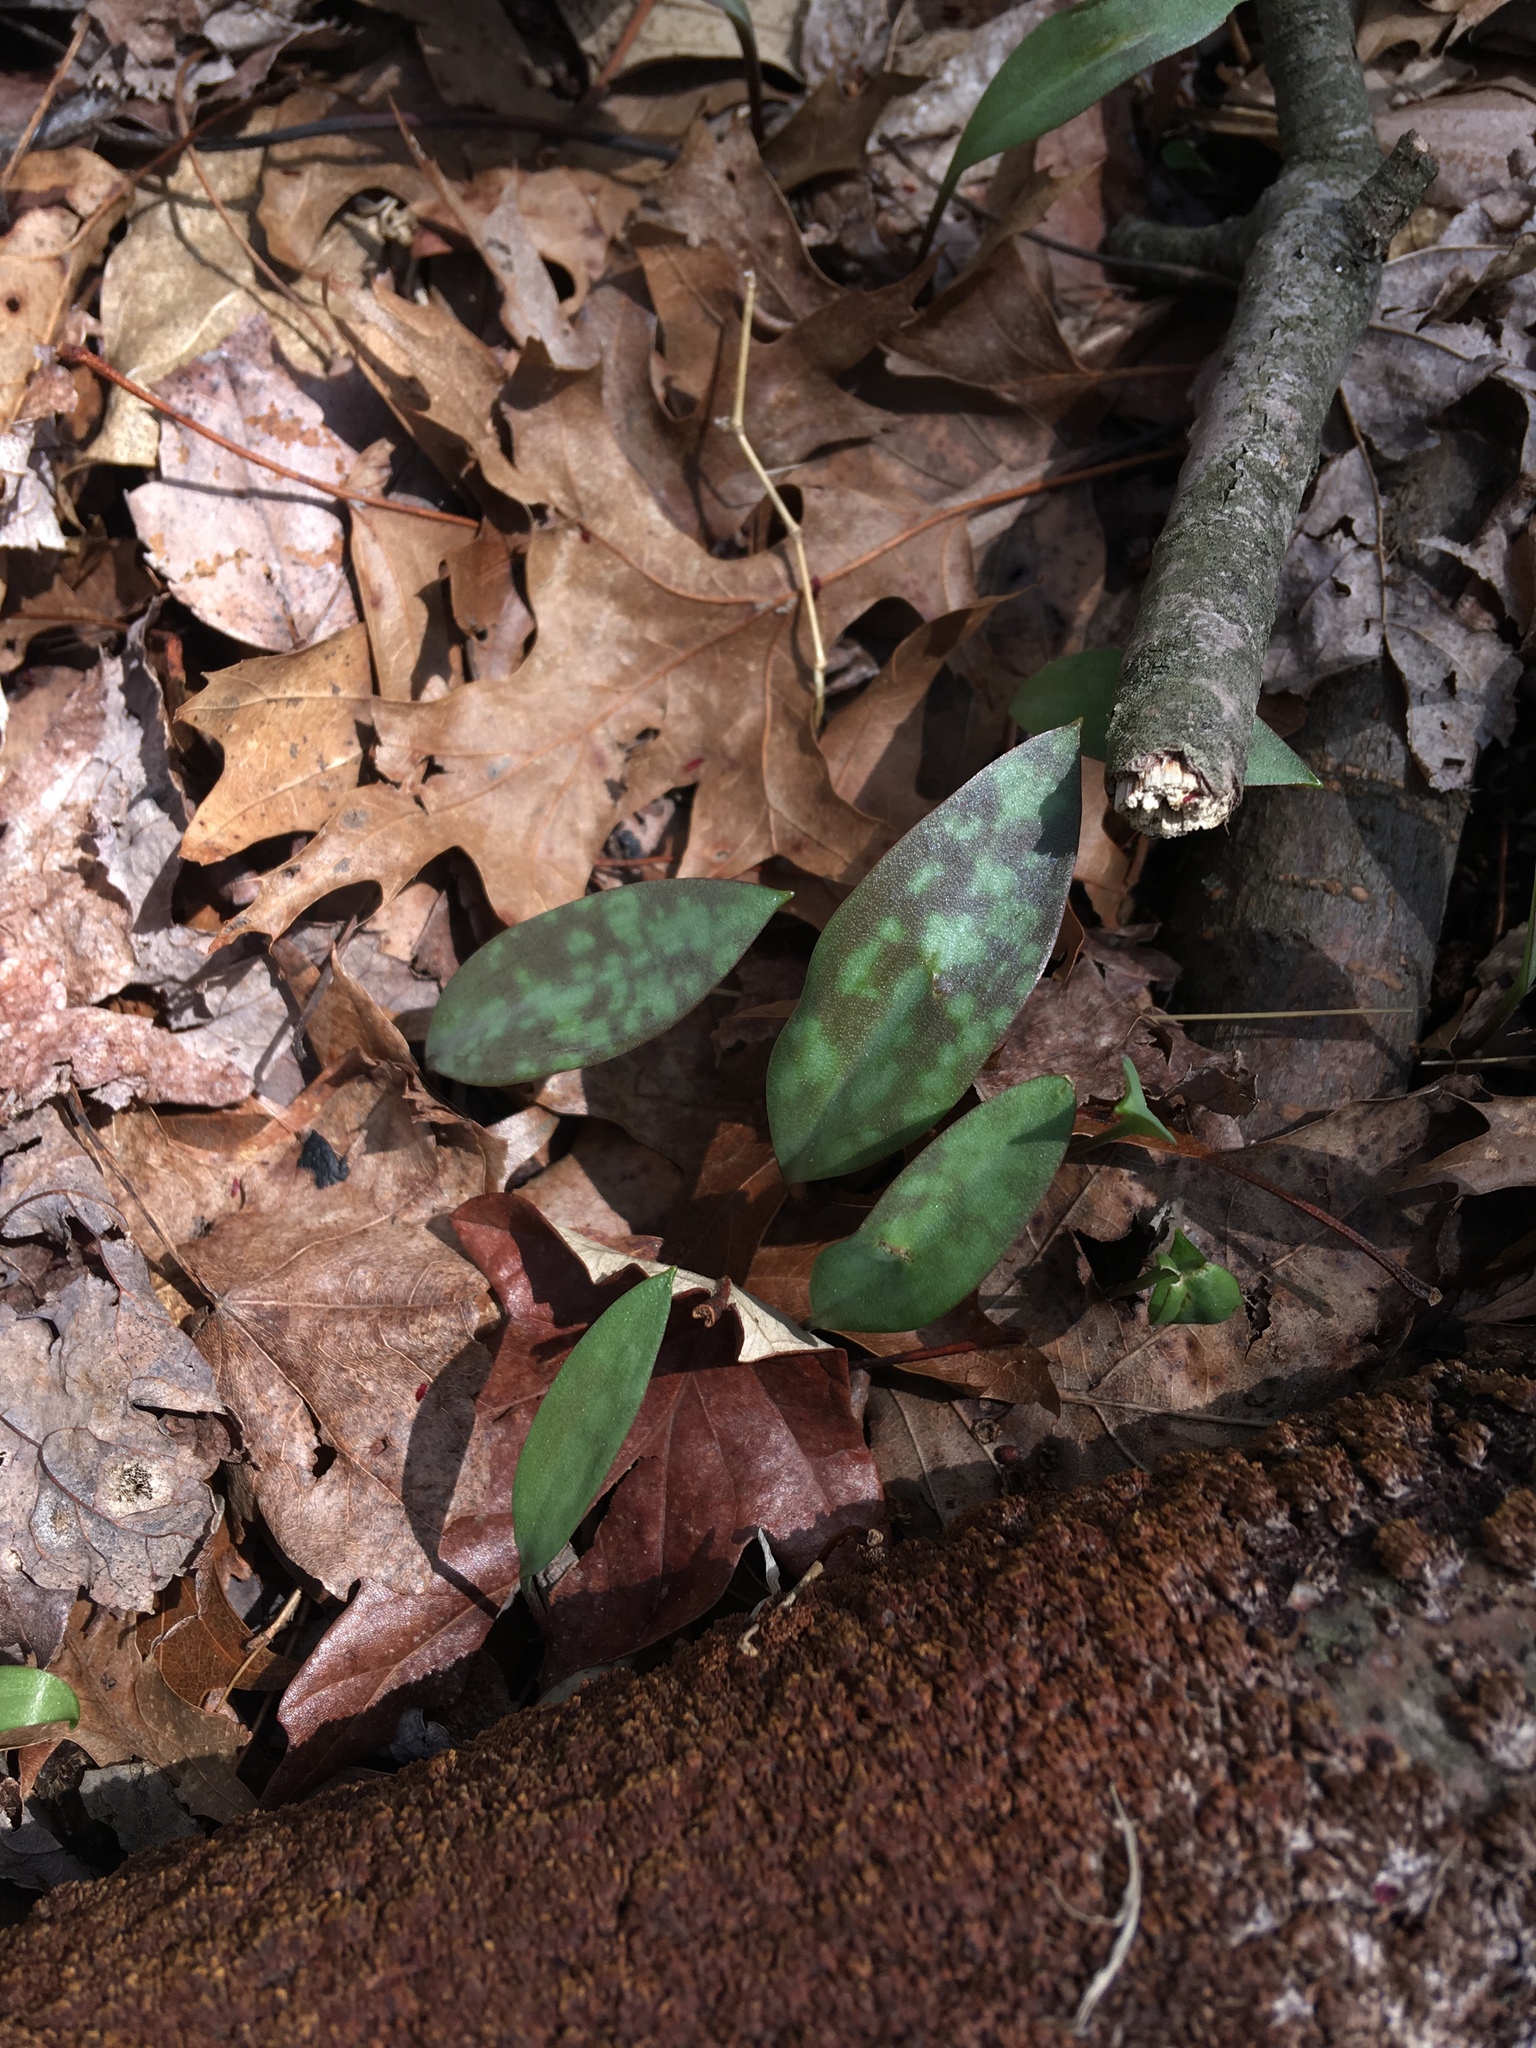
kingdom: Plantae
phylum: Tracheophyta
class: Liliopsida
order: Liliales
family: Liliaceae
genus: Erythronium
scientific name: Erythronium americanum
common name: Yellow adder's-tongue
